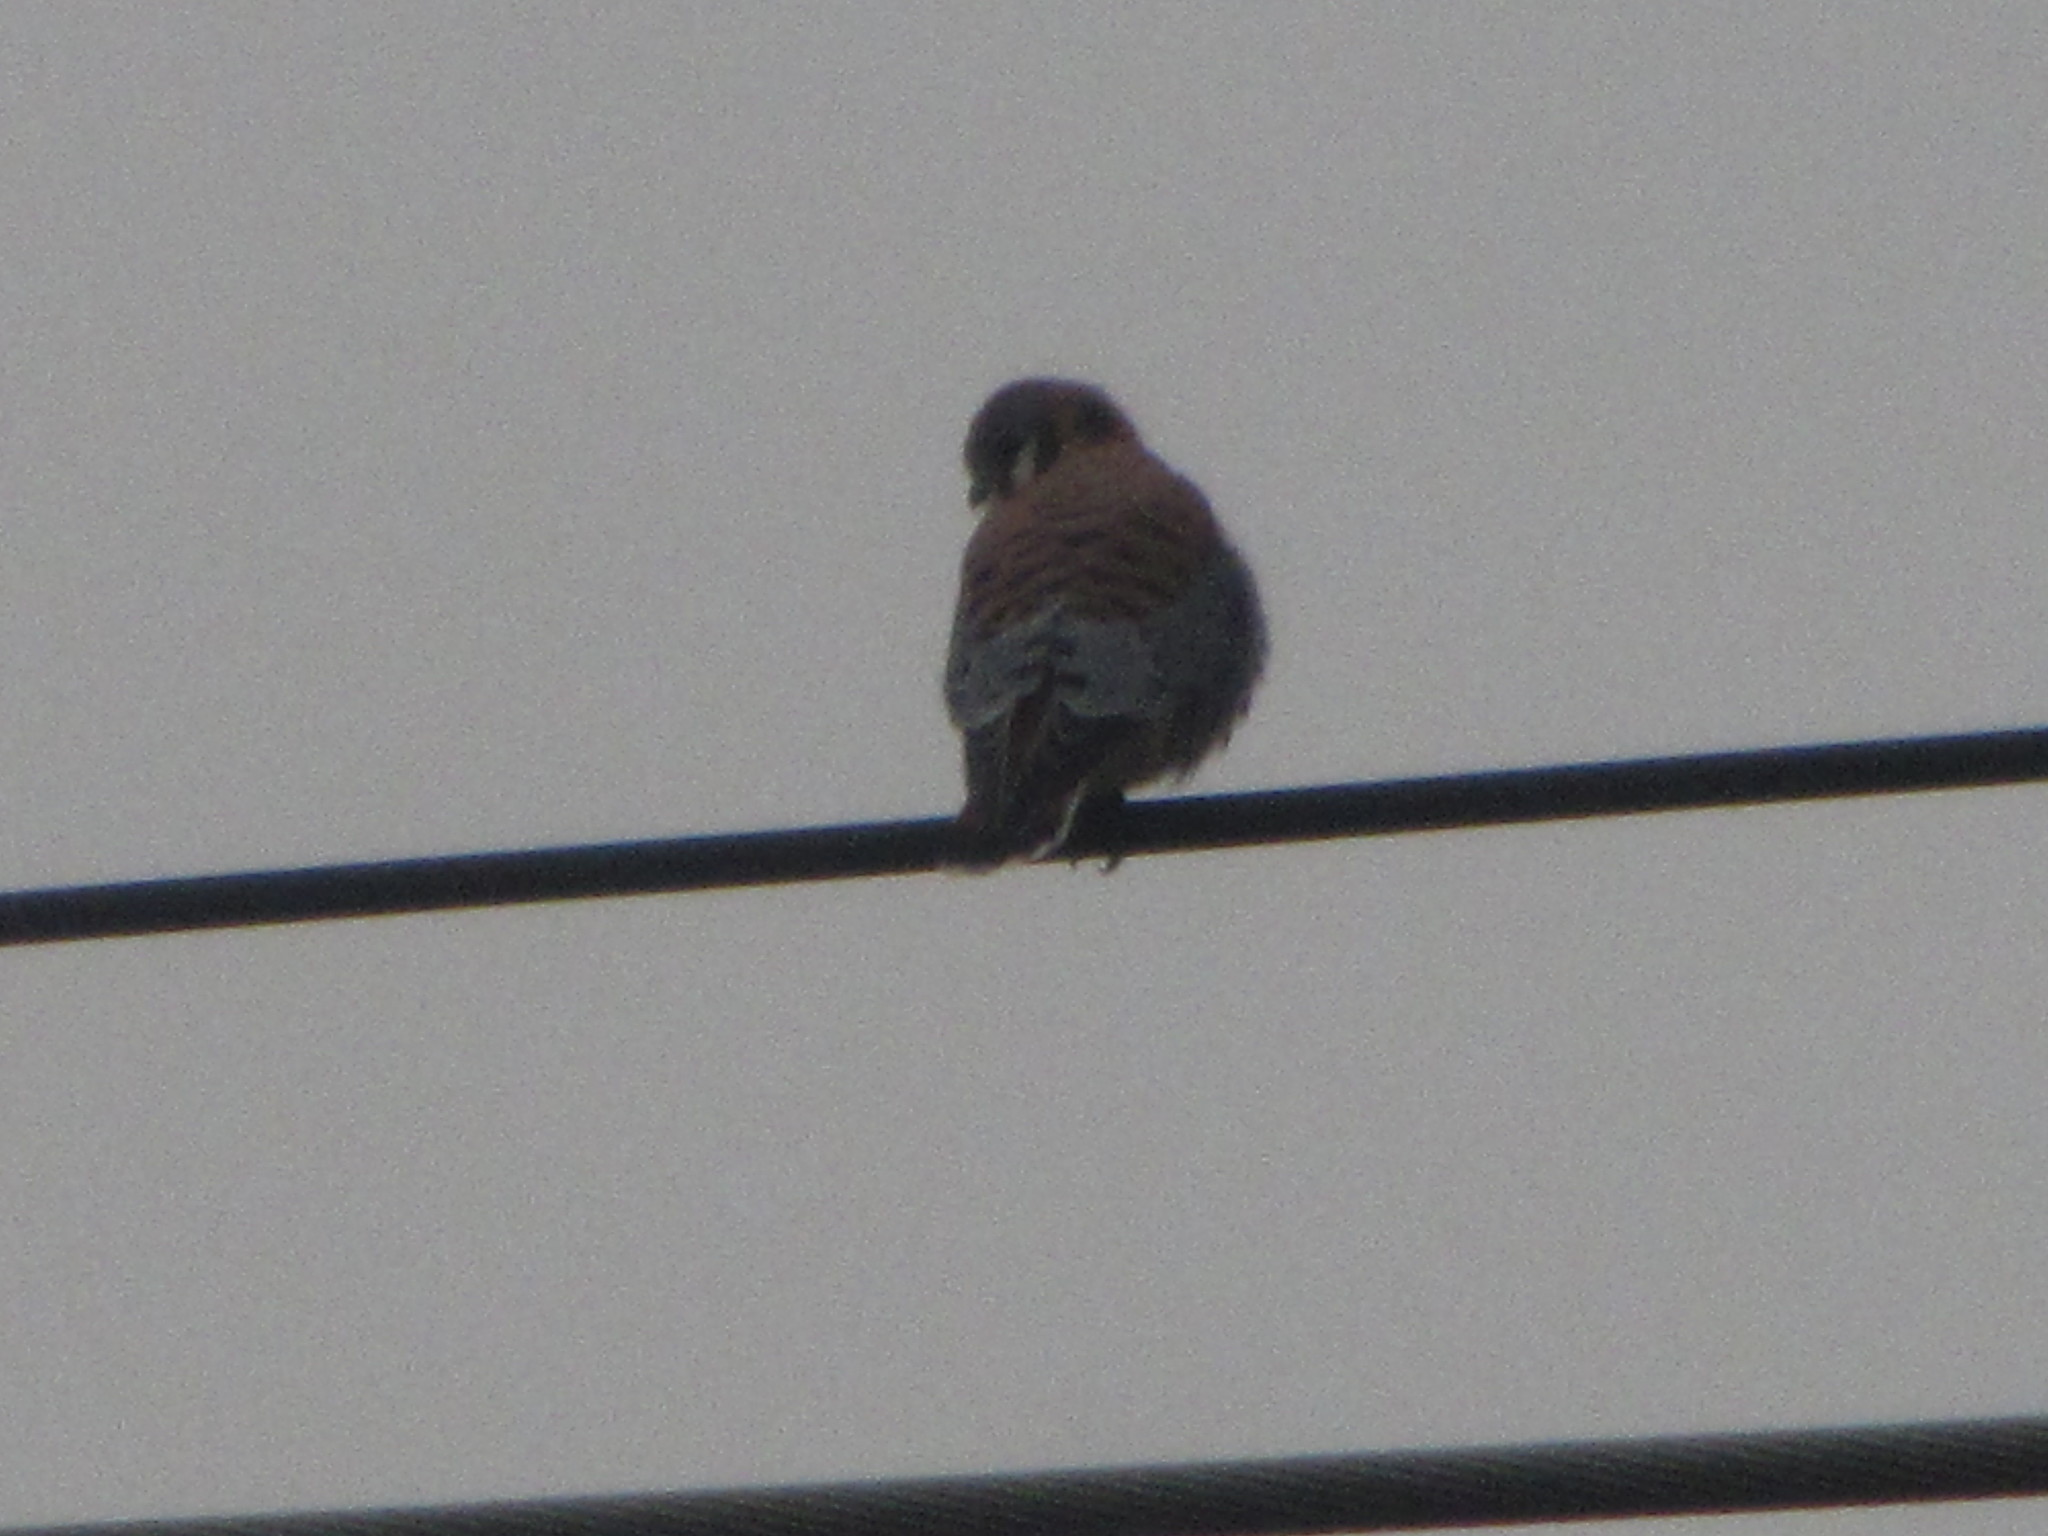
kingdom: Animalia
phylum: Chordata
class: Aves
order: Falconiformes
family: Falconidae
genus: Falco
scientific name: Falco sparverius
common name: American kestrel
